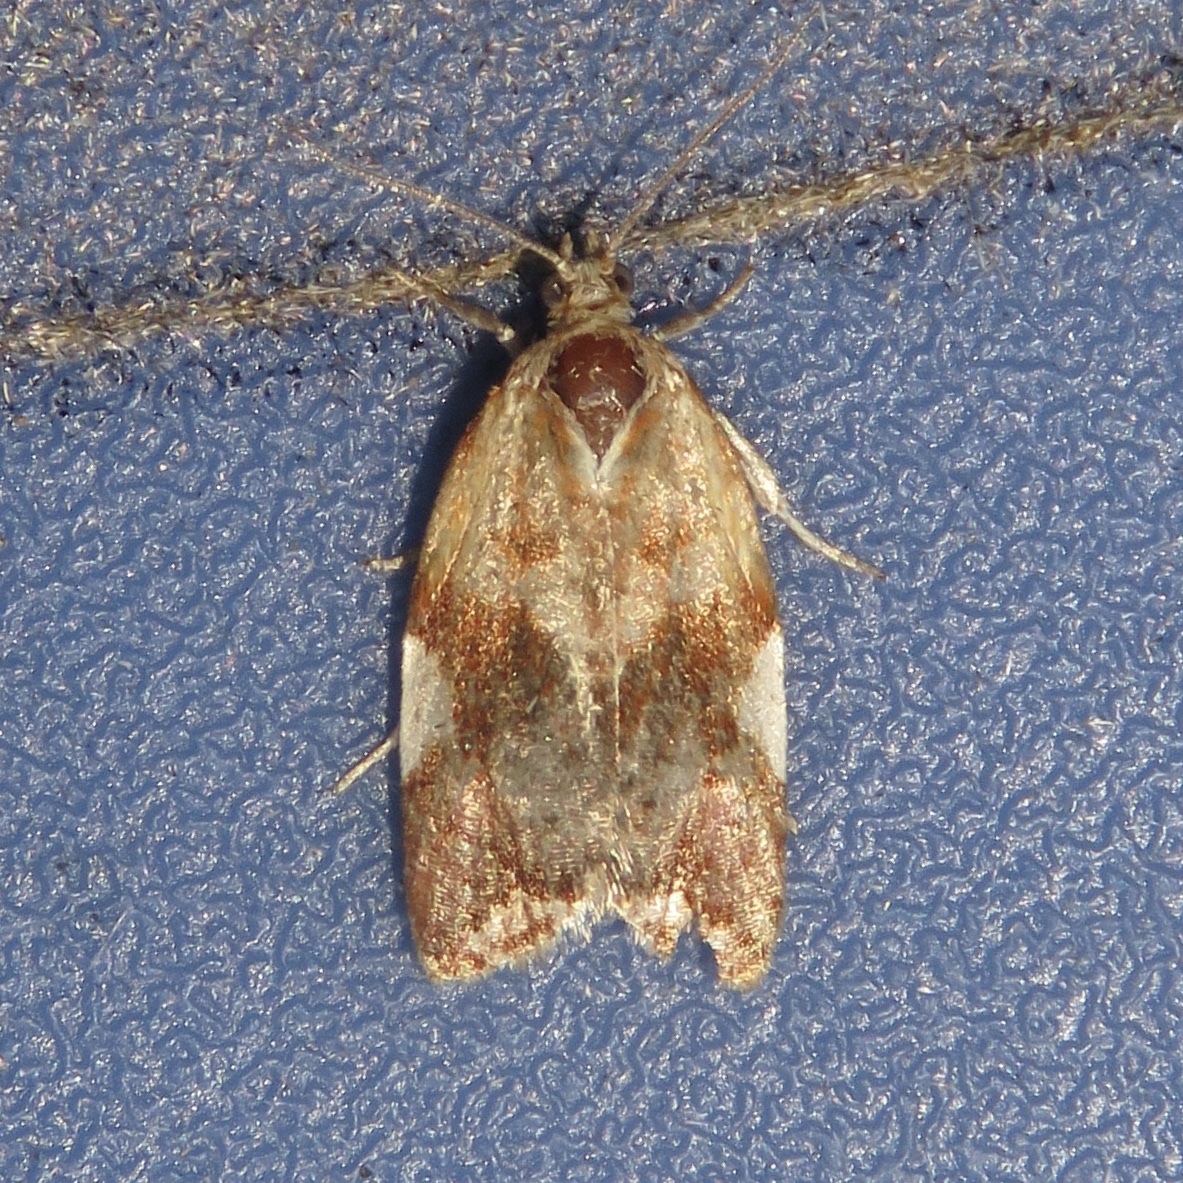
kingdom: Animalia
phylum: Arthropoda
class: Insecta
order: Lepidoptera
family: Tortricidae
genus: Clepsis
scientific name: Clepsis persicana
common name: White triangle tortrix
